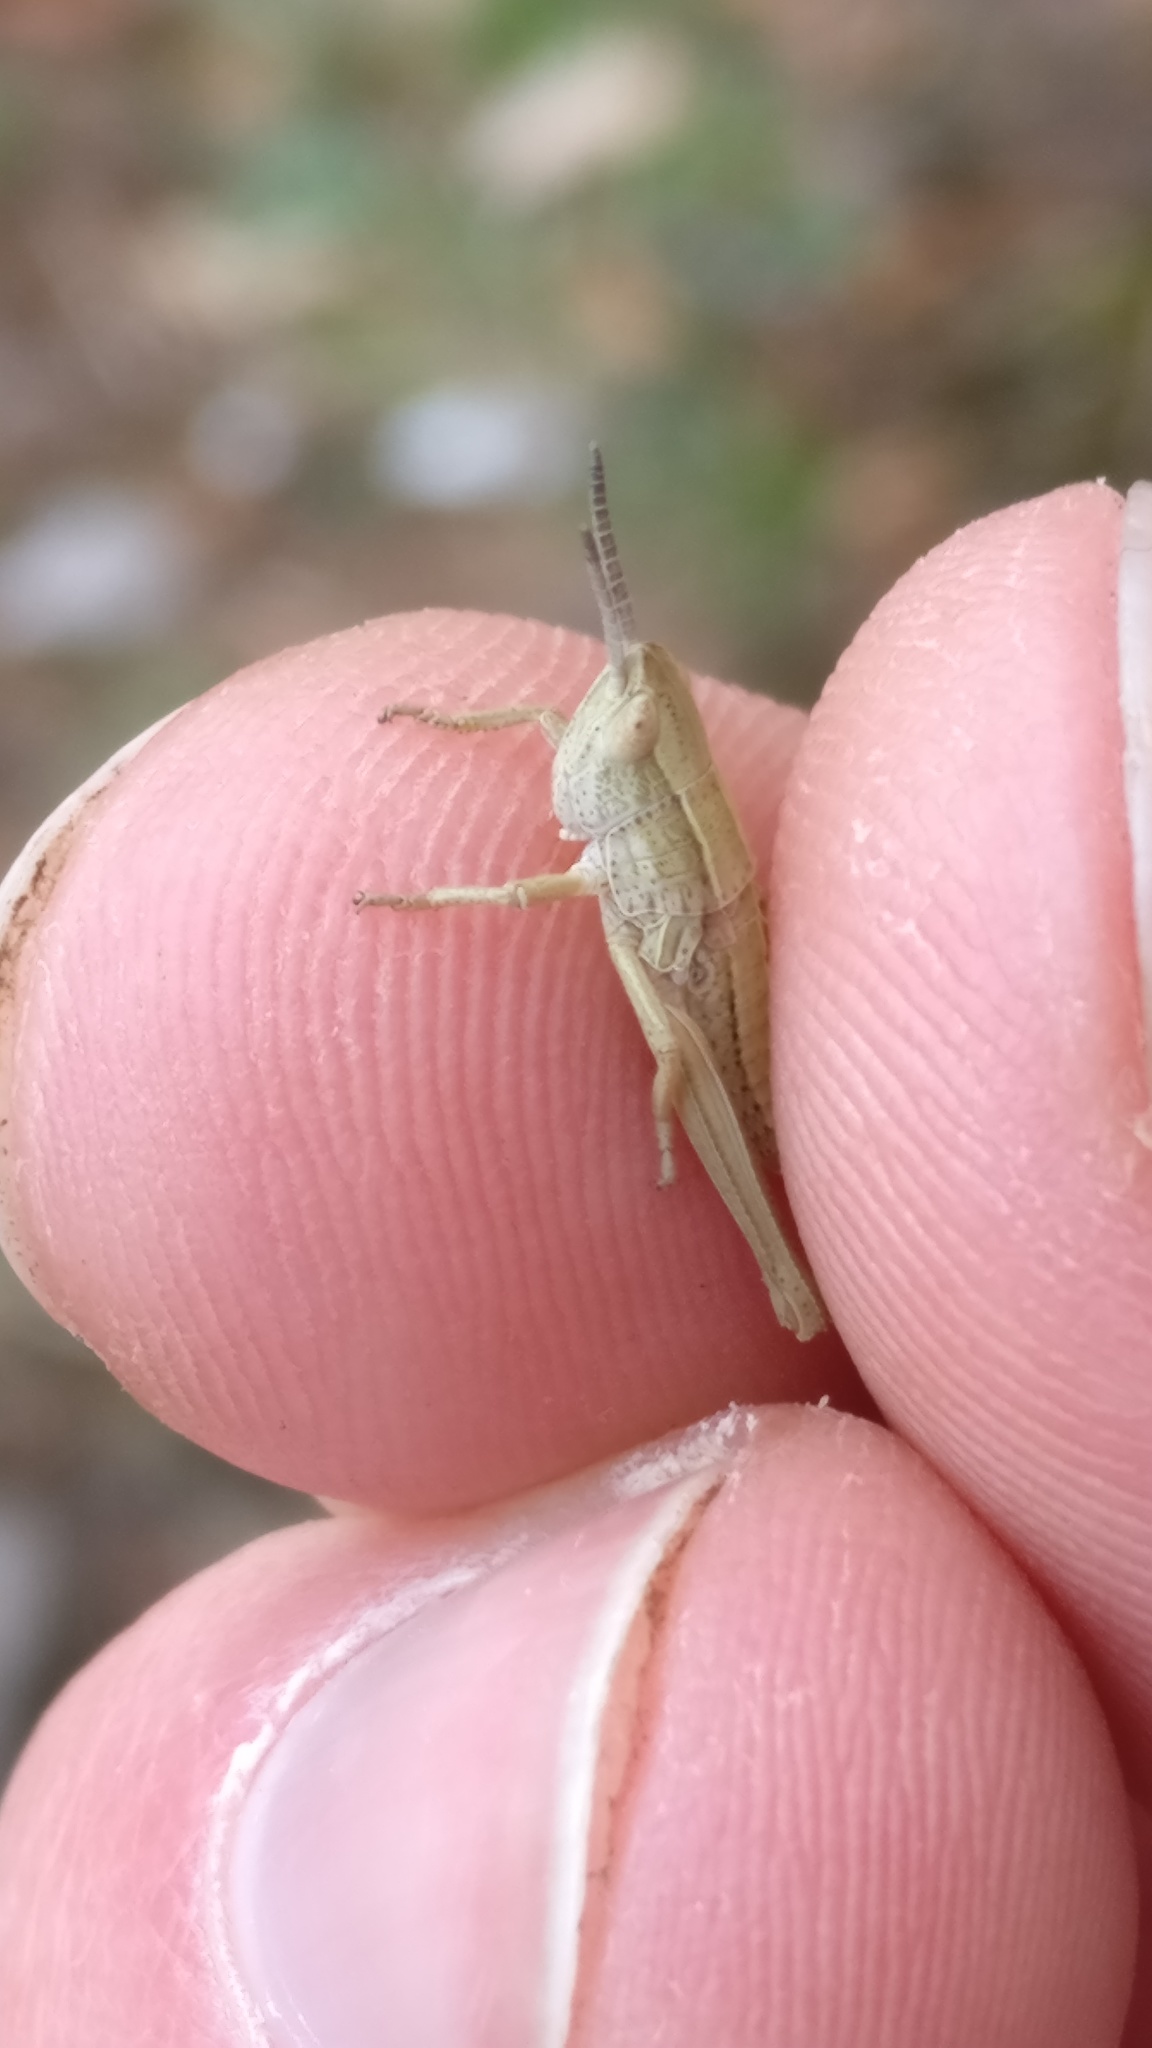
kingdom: Animalia
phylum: Arthropoda
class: Insecta
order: Orthoptera
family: Acrididae
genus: Chrysochraon
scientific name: Chrysochraon dispar
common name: Large gold grasshopper
